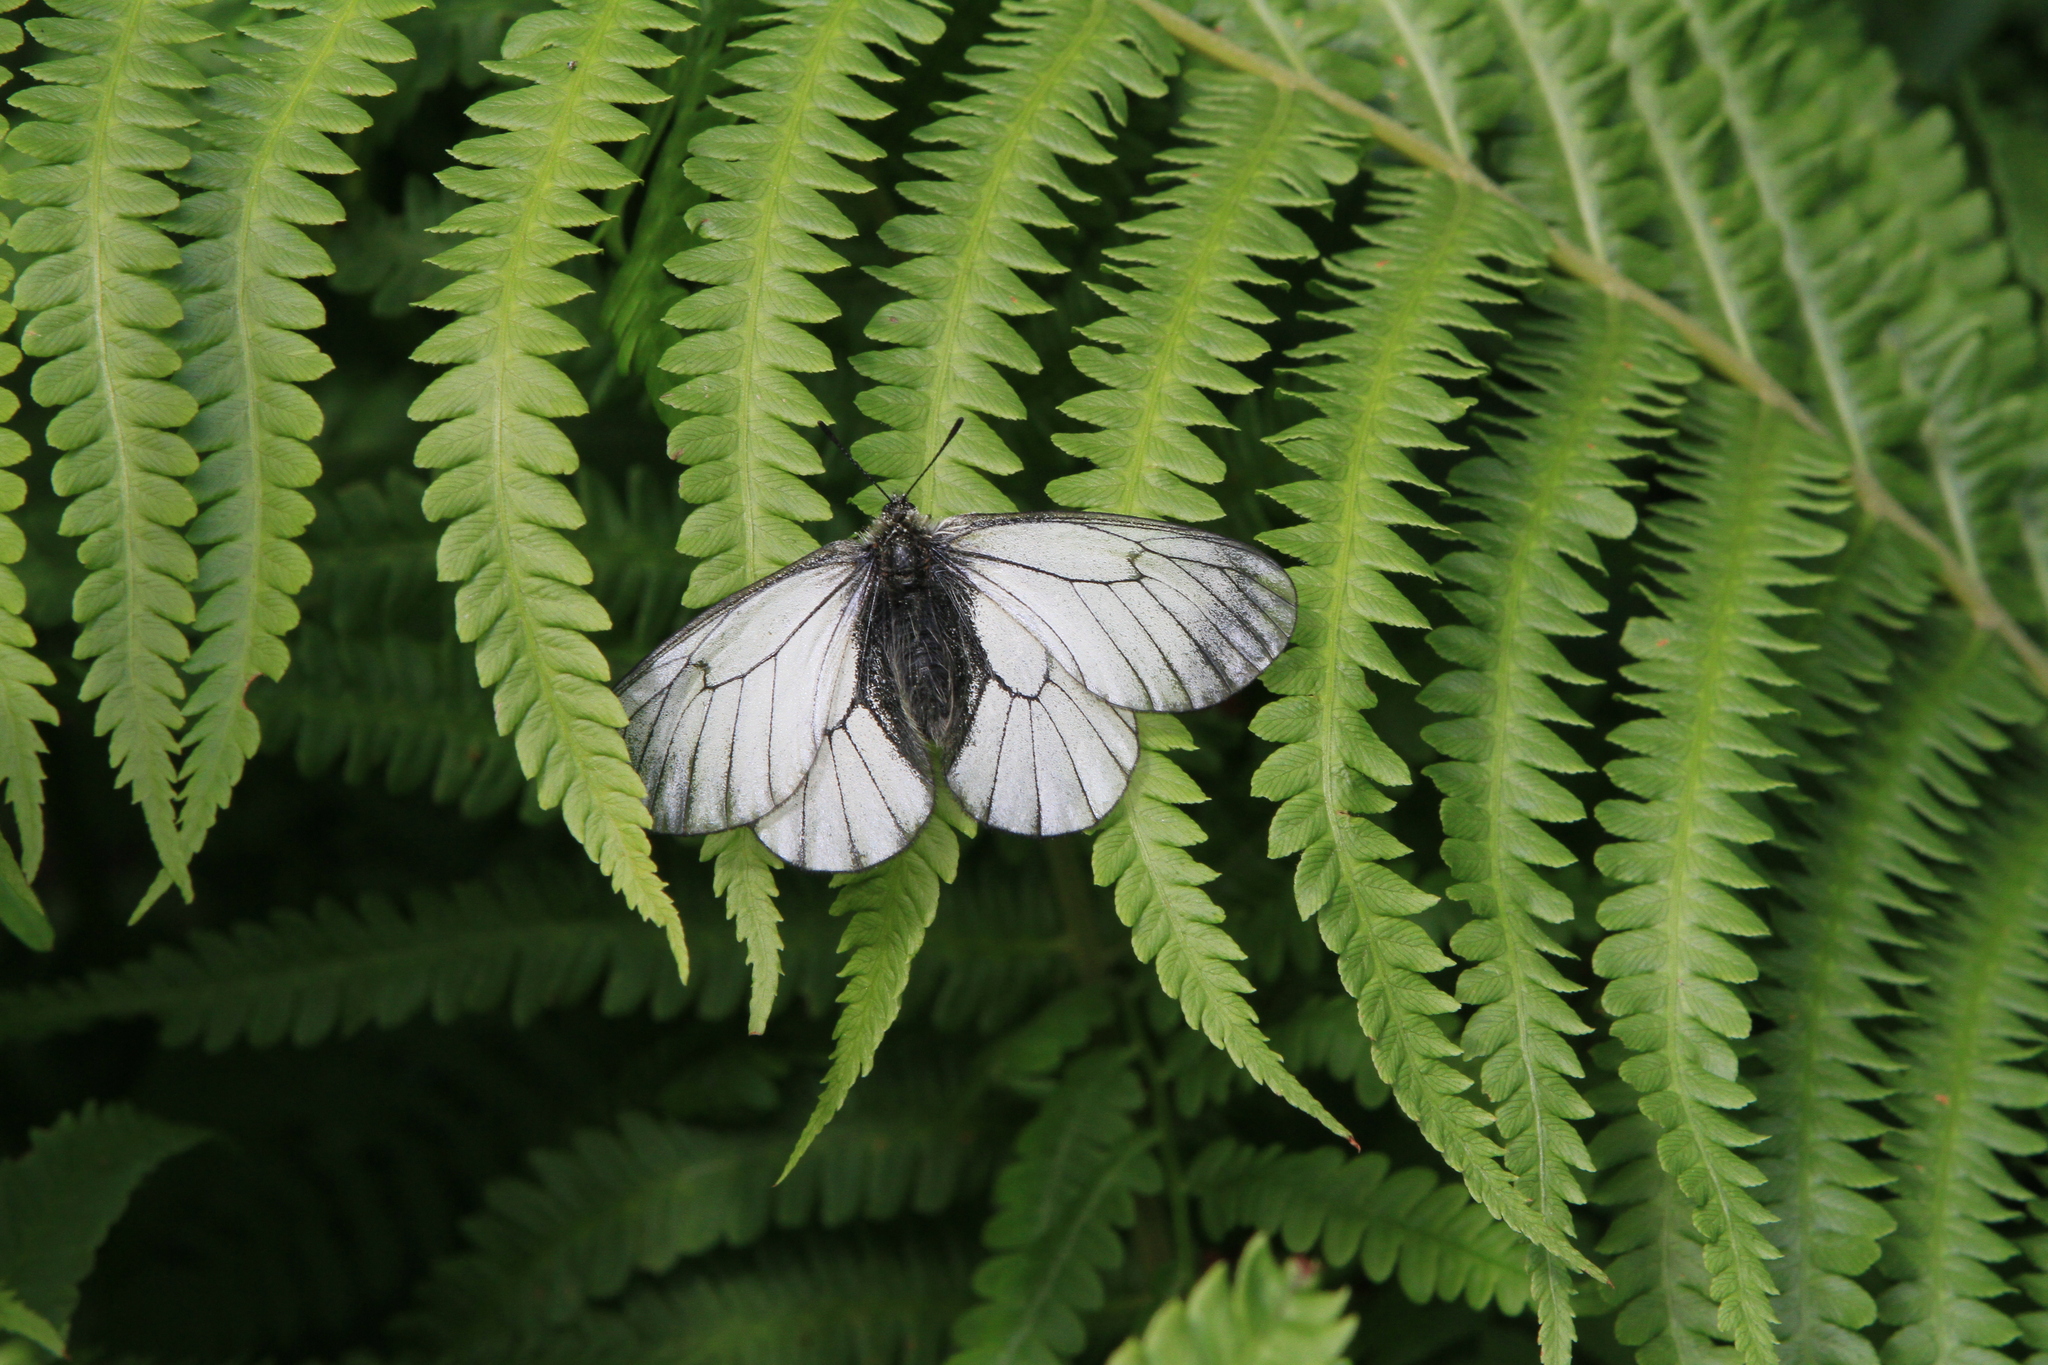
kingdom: Plantae
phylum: Tracheophyta
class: Polypodiopsida
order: Polypodiales
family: Onocleaceae
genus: Matteuccia
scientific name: Matteuccia struthiopteris
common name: Ostrich fern
